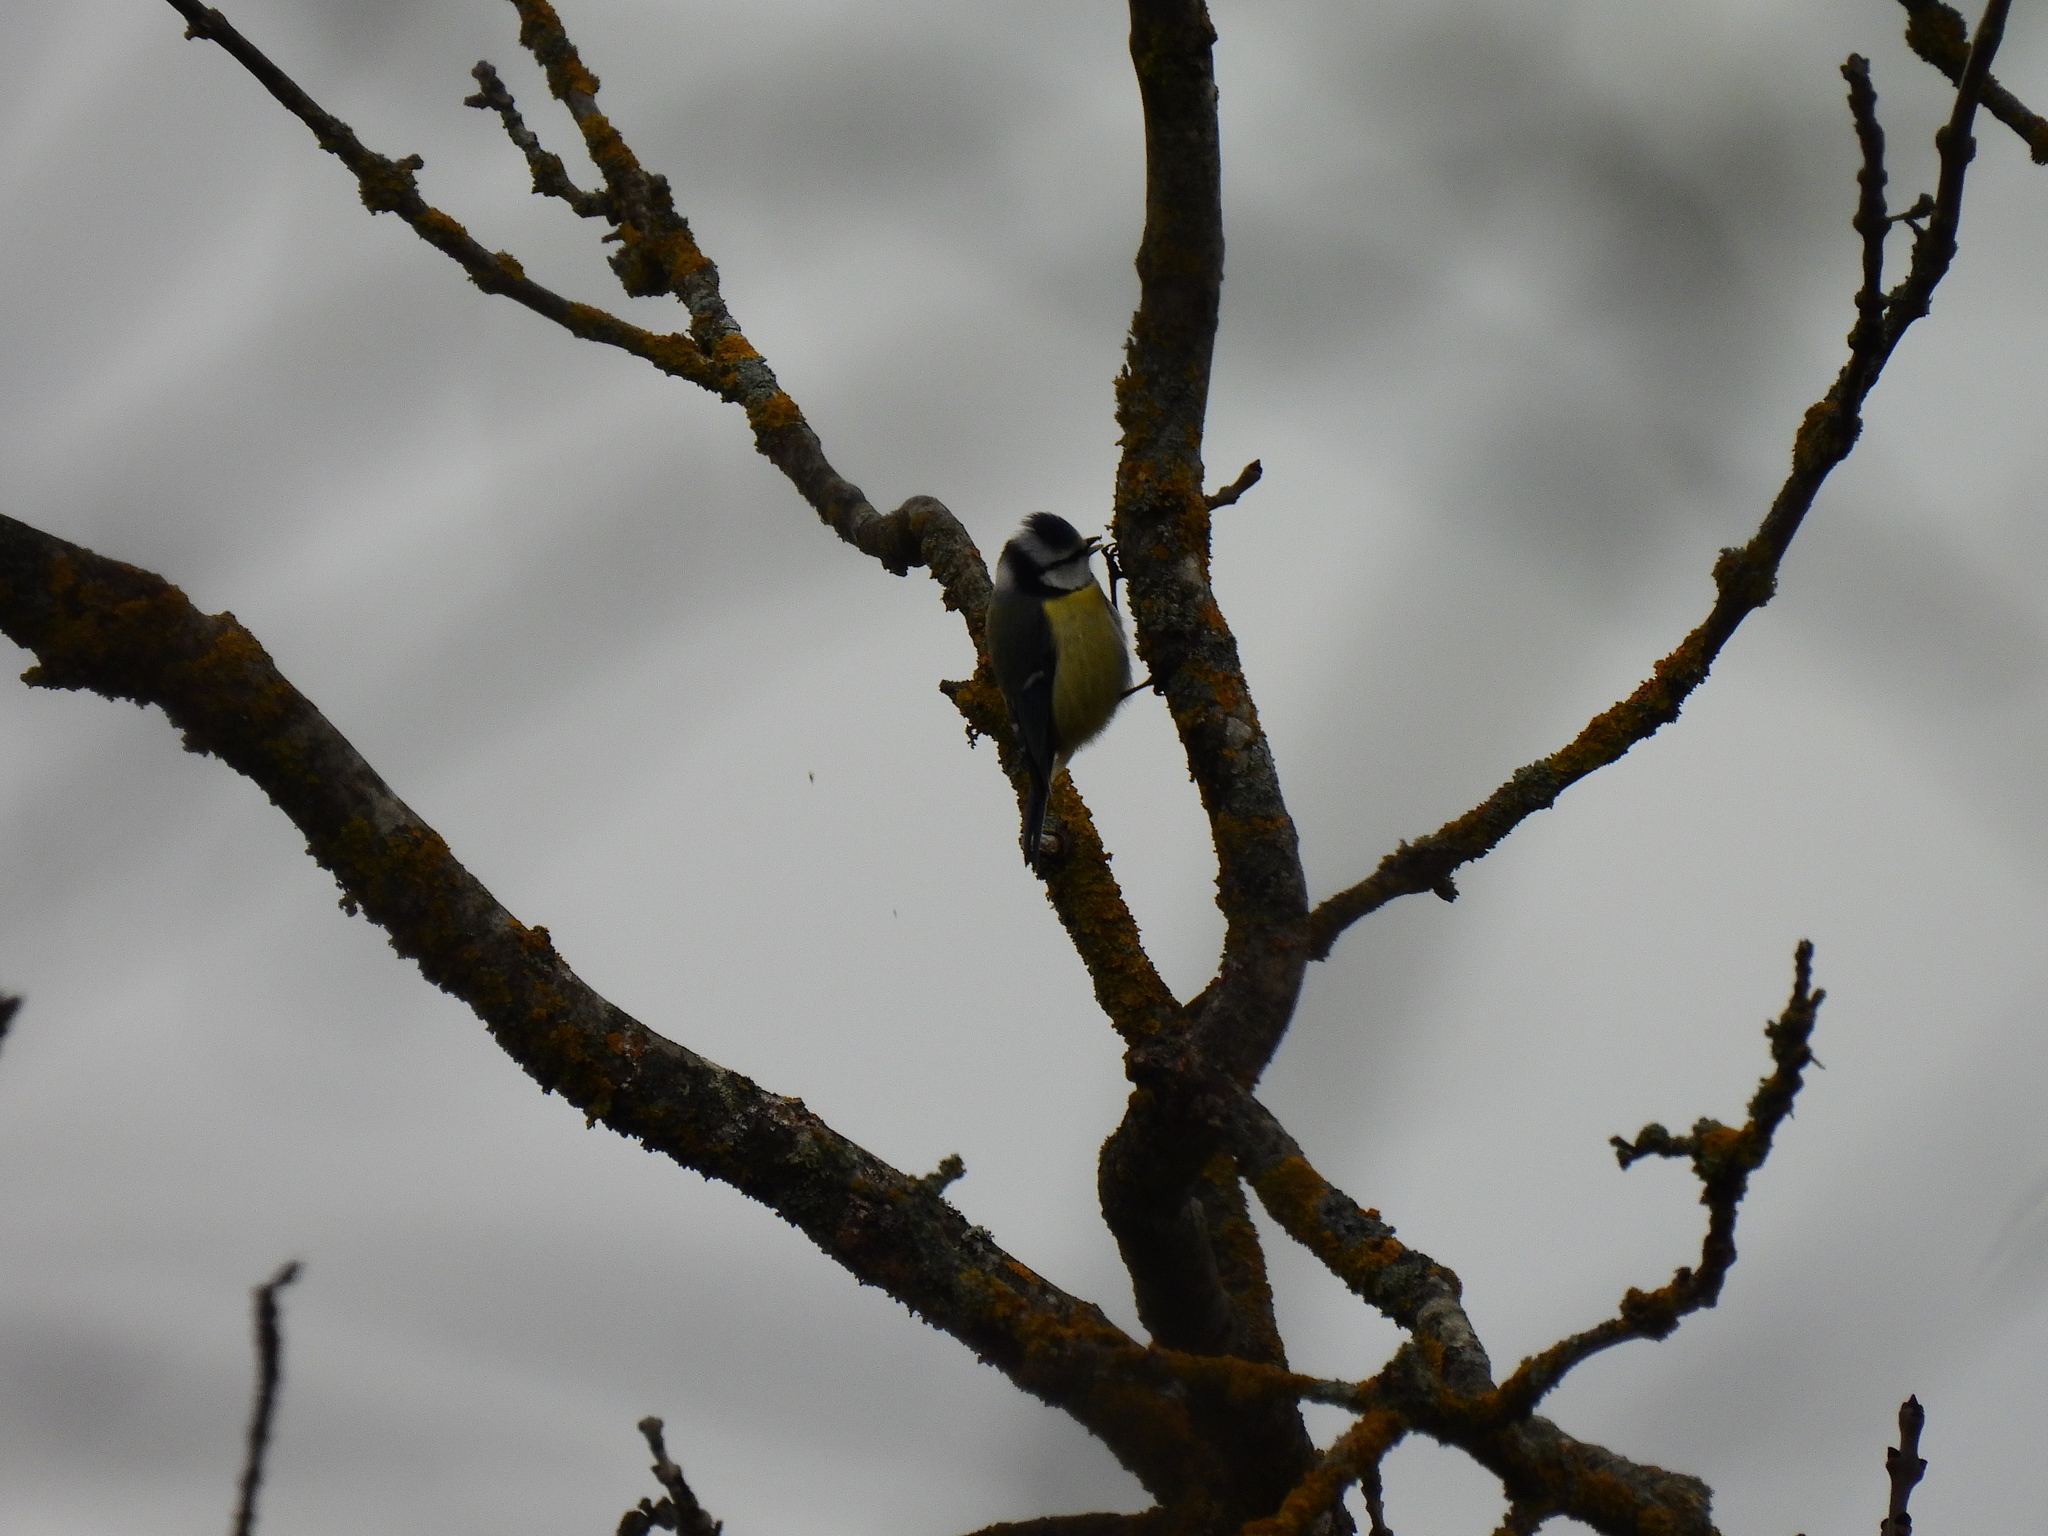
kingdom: Animalia
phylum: Chordata
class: Aves
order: Passeriformes
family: Paridae
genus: Cyanistes
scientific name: Cyanistes caeruleus
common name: Eurasian blue tit
